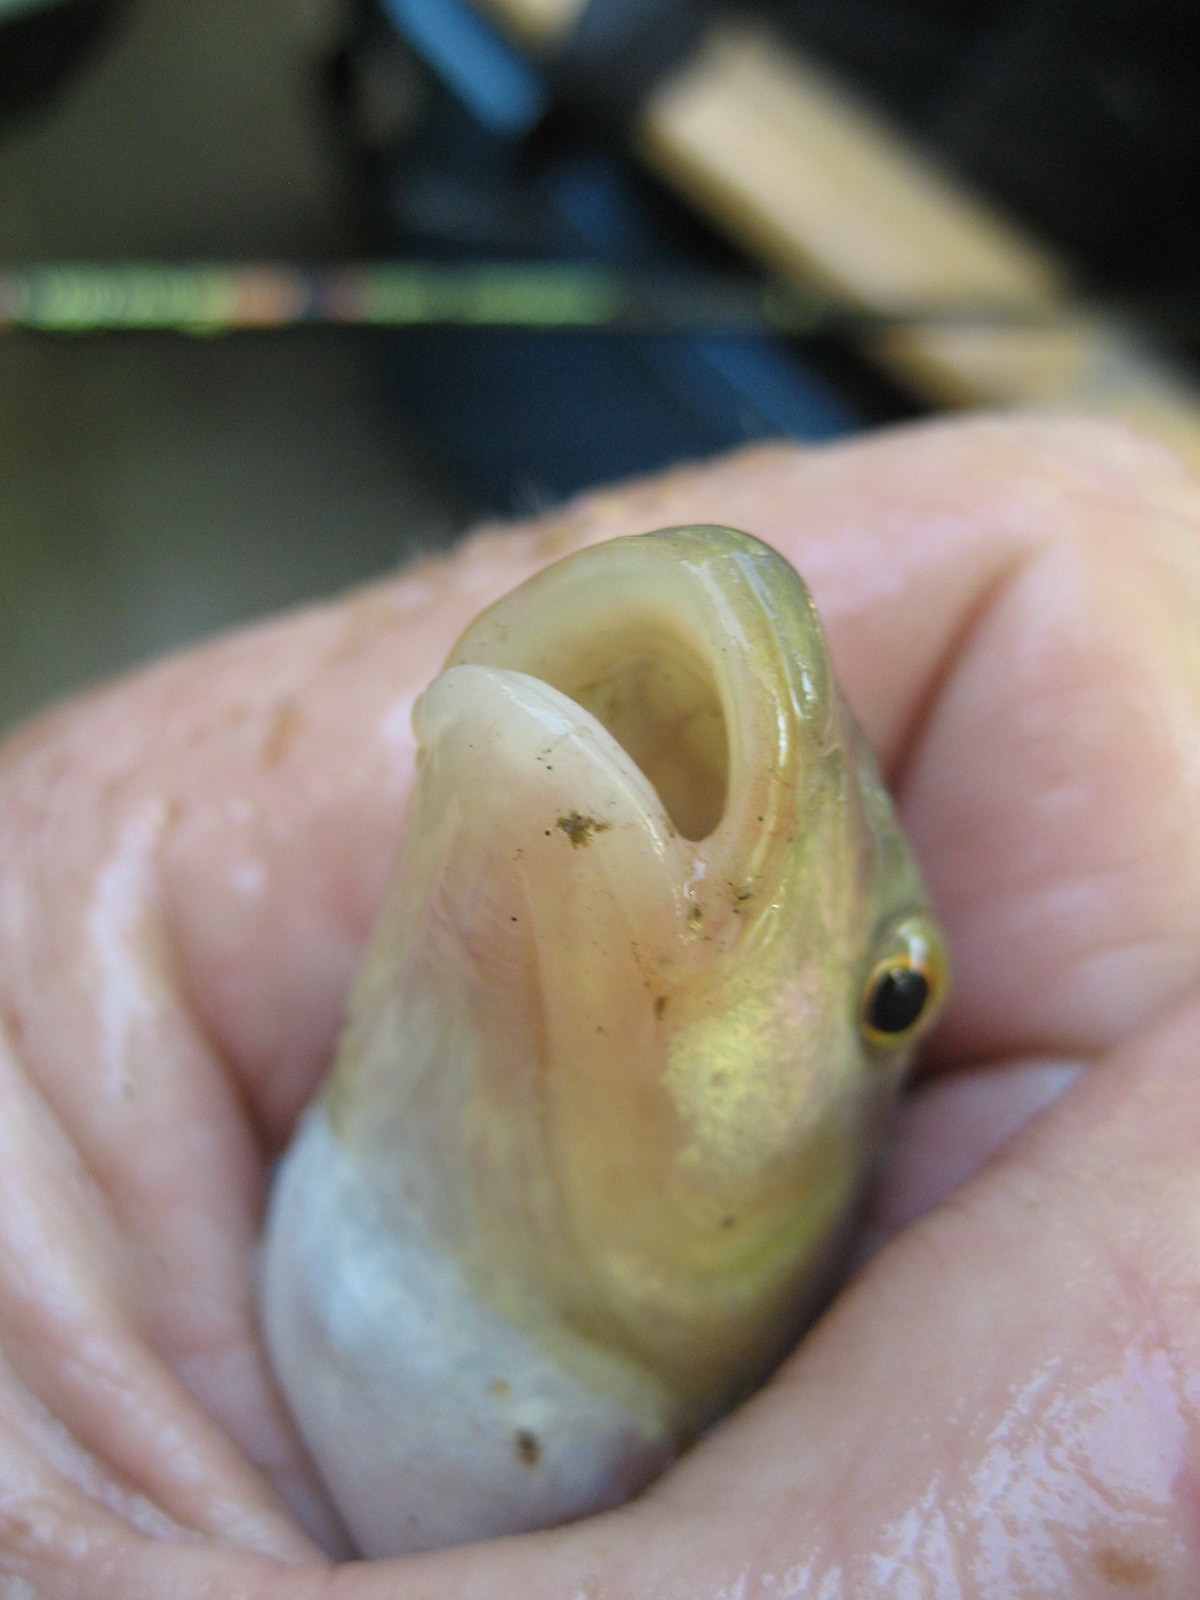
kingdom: Animalia
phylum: Chordata
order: Cypriniformes
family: Cyprinidae
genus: Nocomis
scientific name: Nocomis micropogon
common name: River chub
